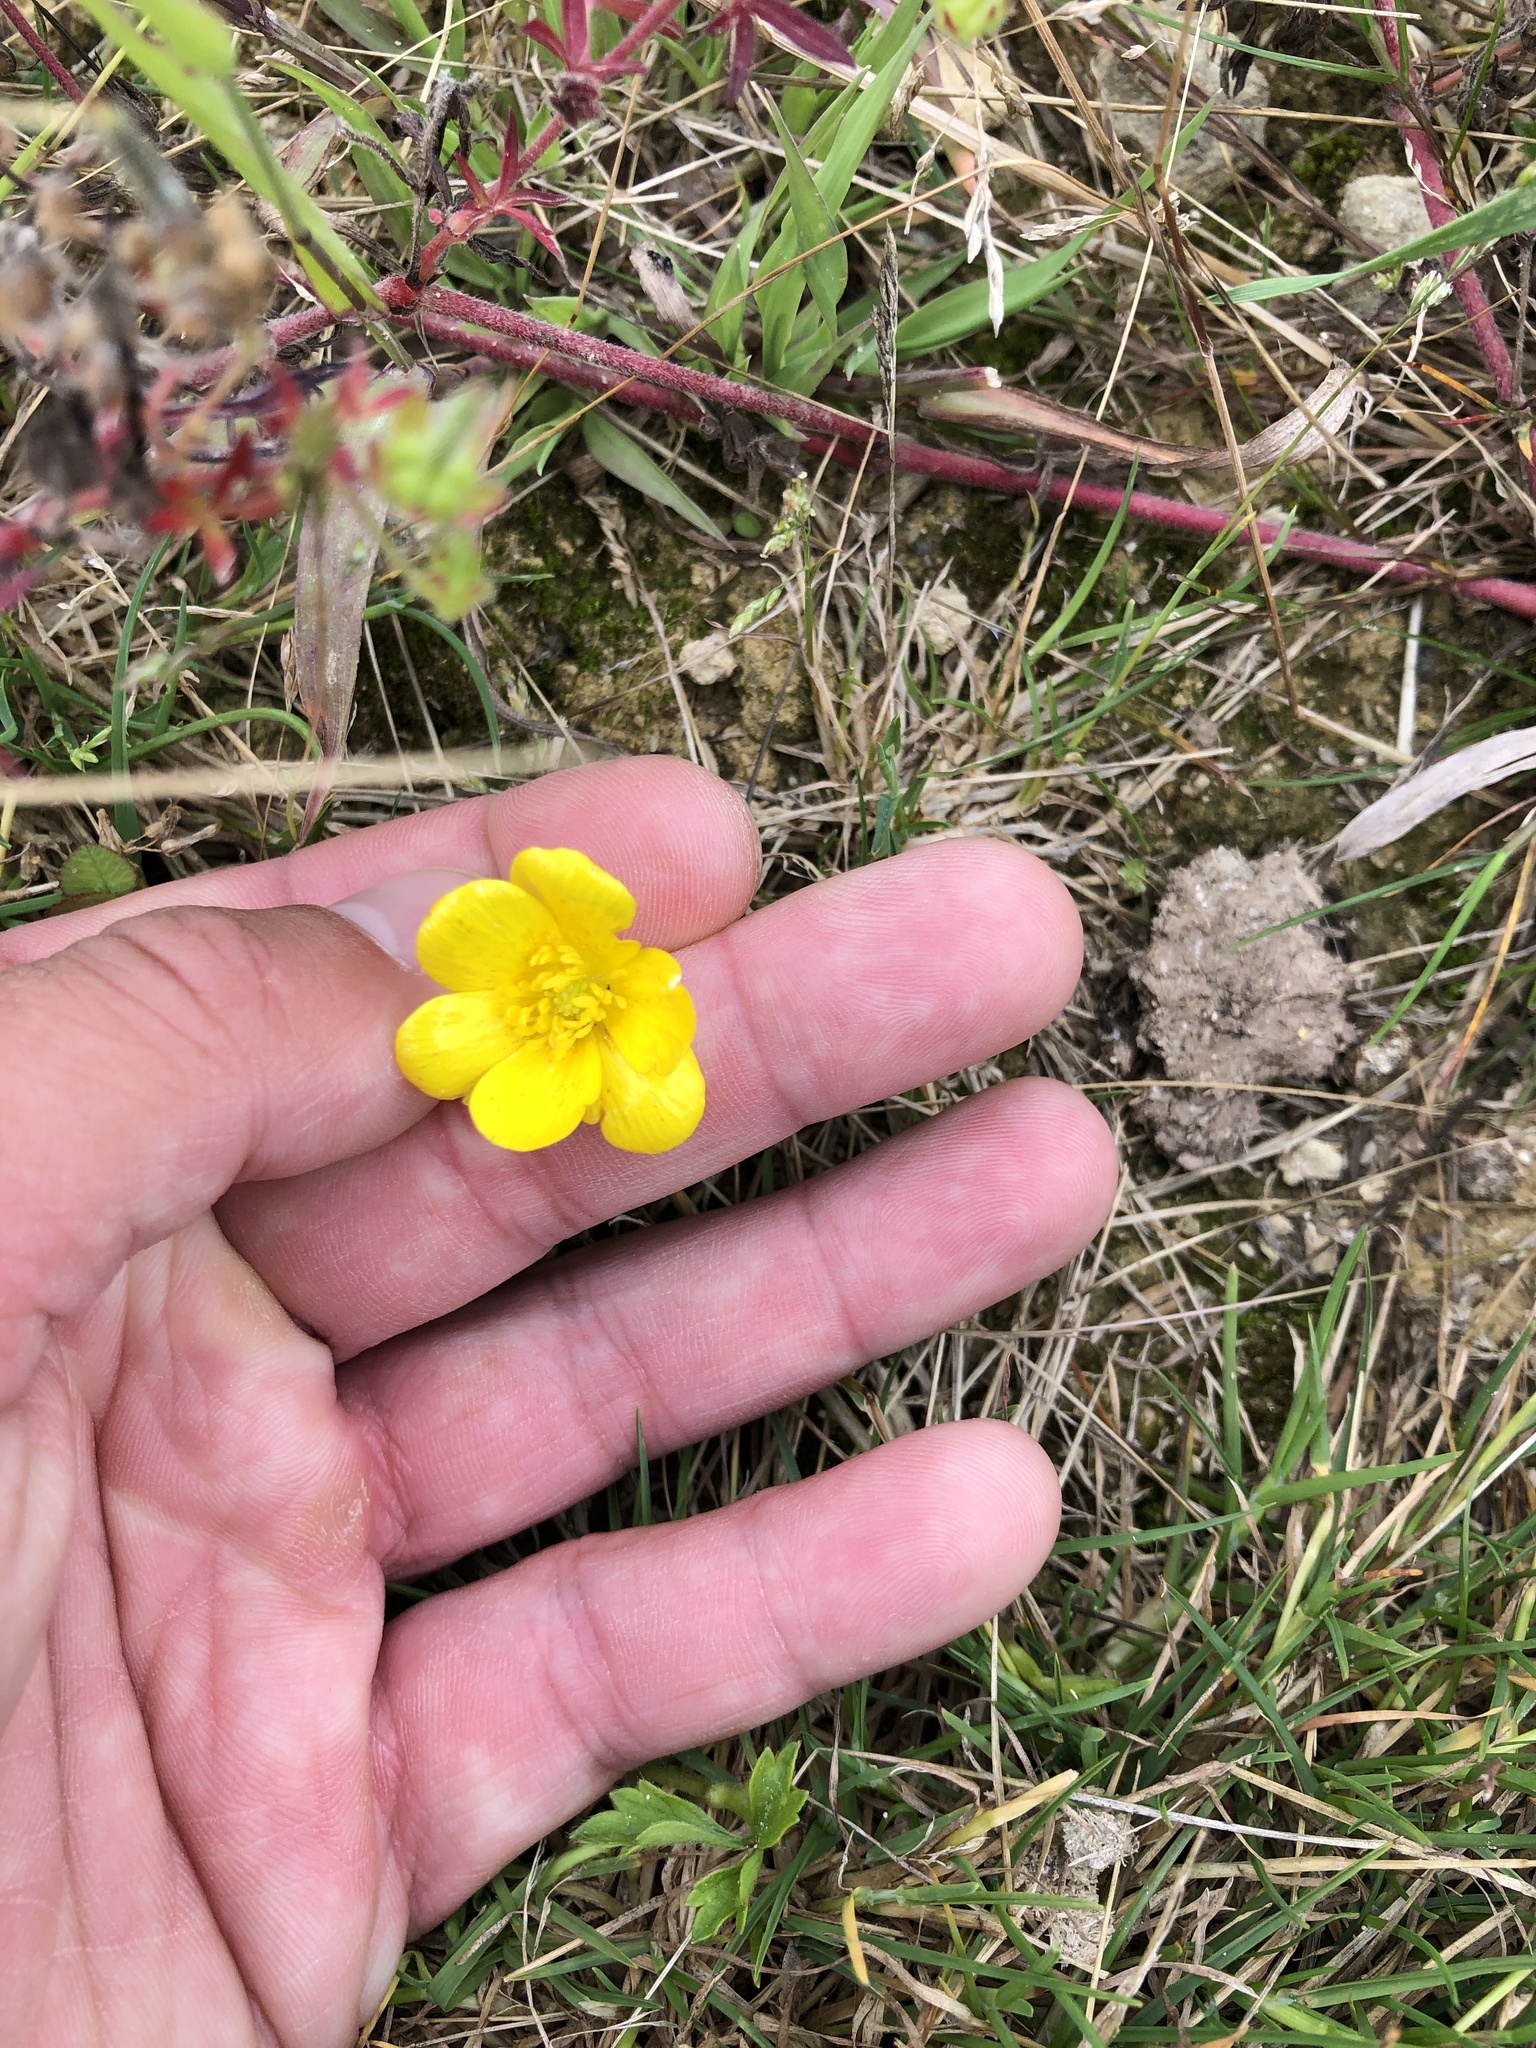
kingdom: Plantae
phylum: Tracheophyta
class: Magnoliopsida
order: Ranunculales
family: Ranunculaceae
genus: Ranunculus
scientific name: Ranunculus acris
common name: Meadow buttercup
